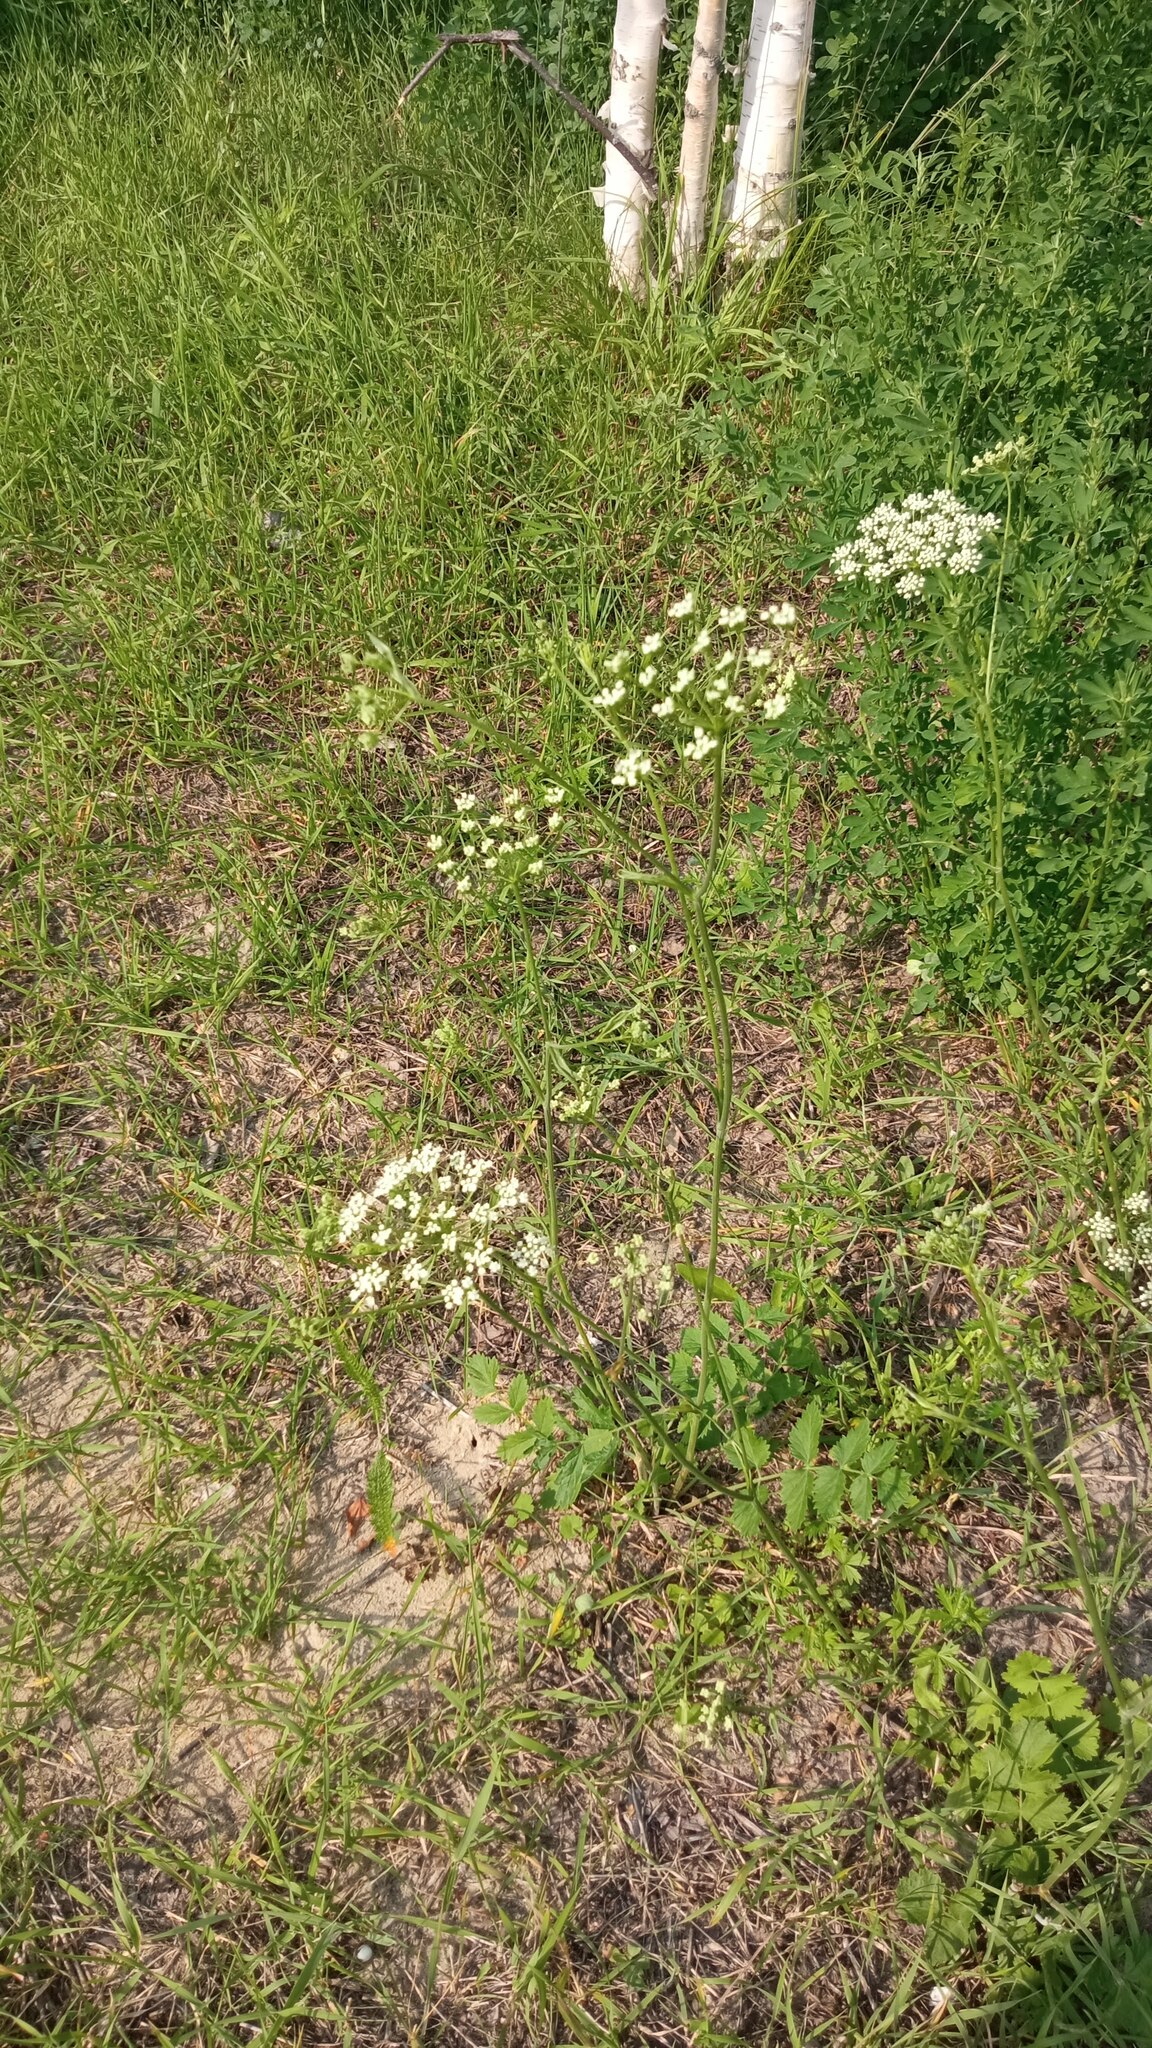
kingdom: Plantae
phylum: Tracheophyta
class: Magnoliopsida
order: Apiales
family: Apiaceae
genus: Pimpinella
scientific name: Pimpinella saxifraga
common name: Burnet-saxifrage
